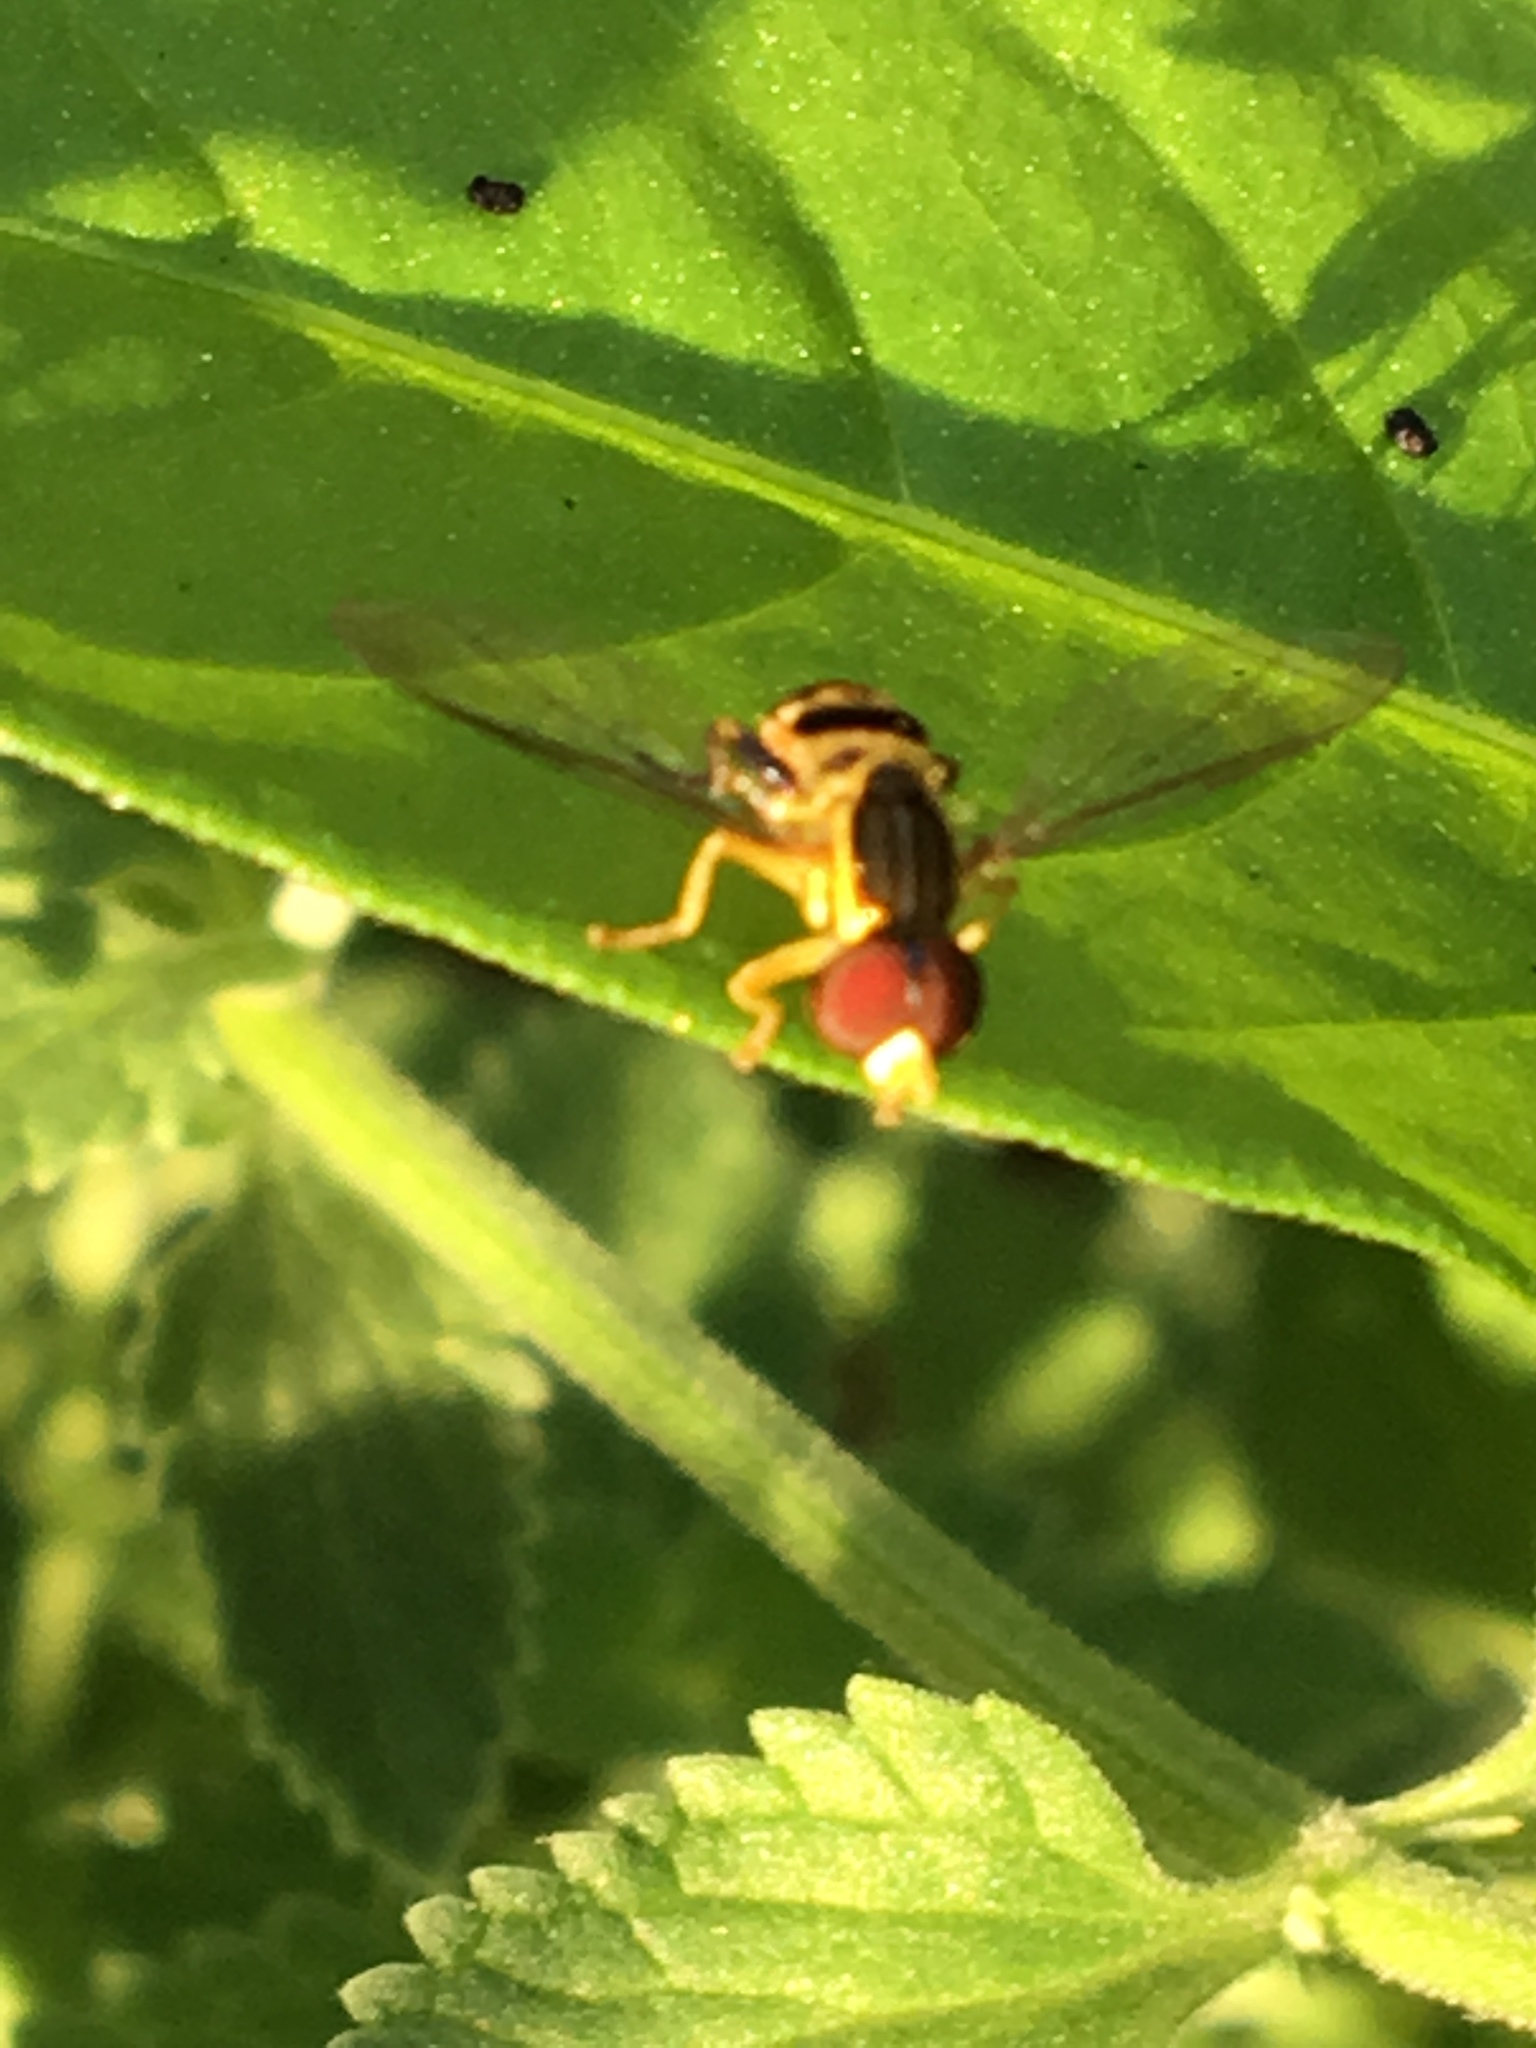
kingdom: Animalia
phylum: Arthropoda
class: Insecta
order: Diptera
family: Syrphidae
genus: Toxomerus
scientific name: Toxomerus geminatus
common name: Eastern calligrapher
